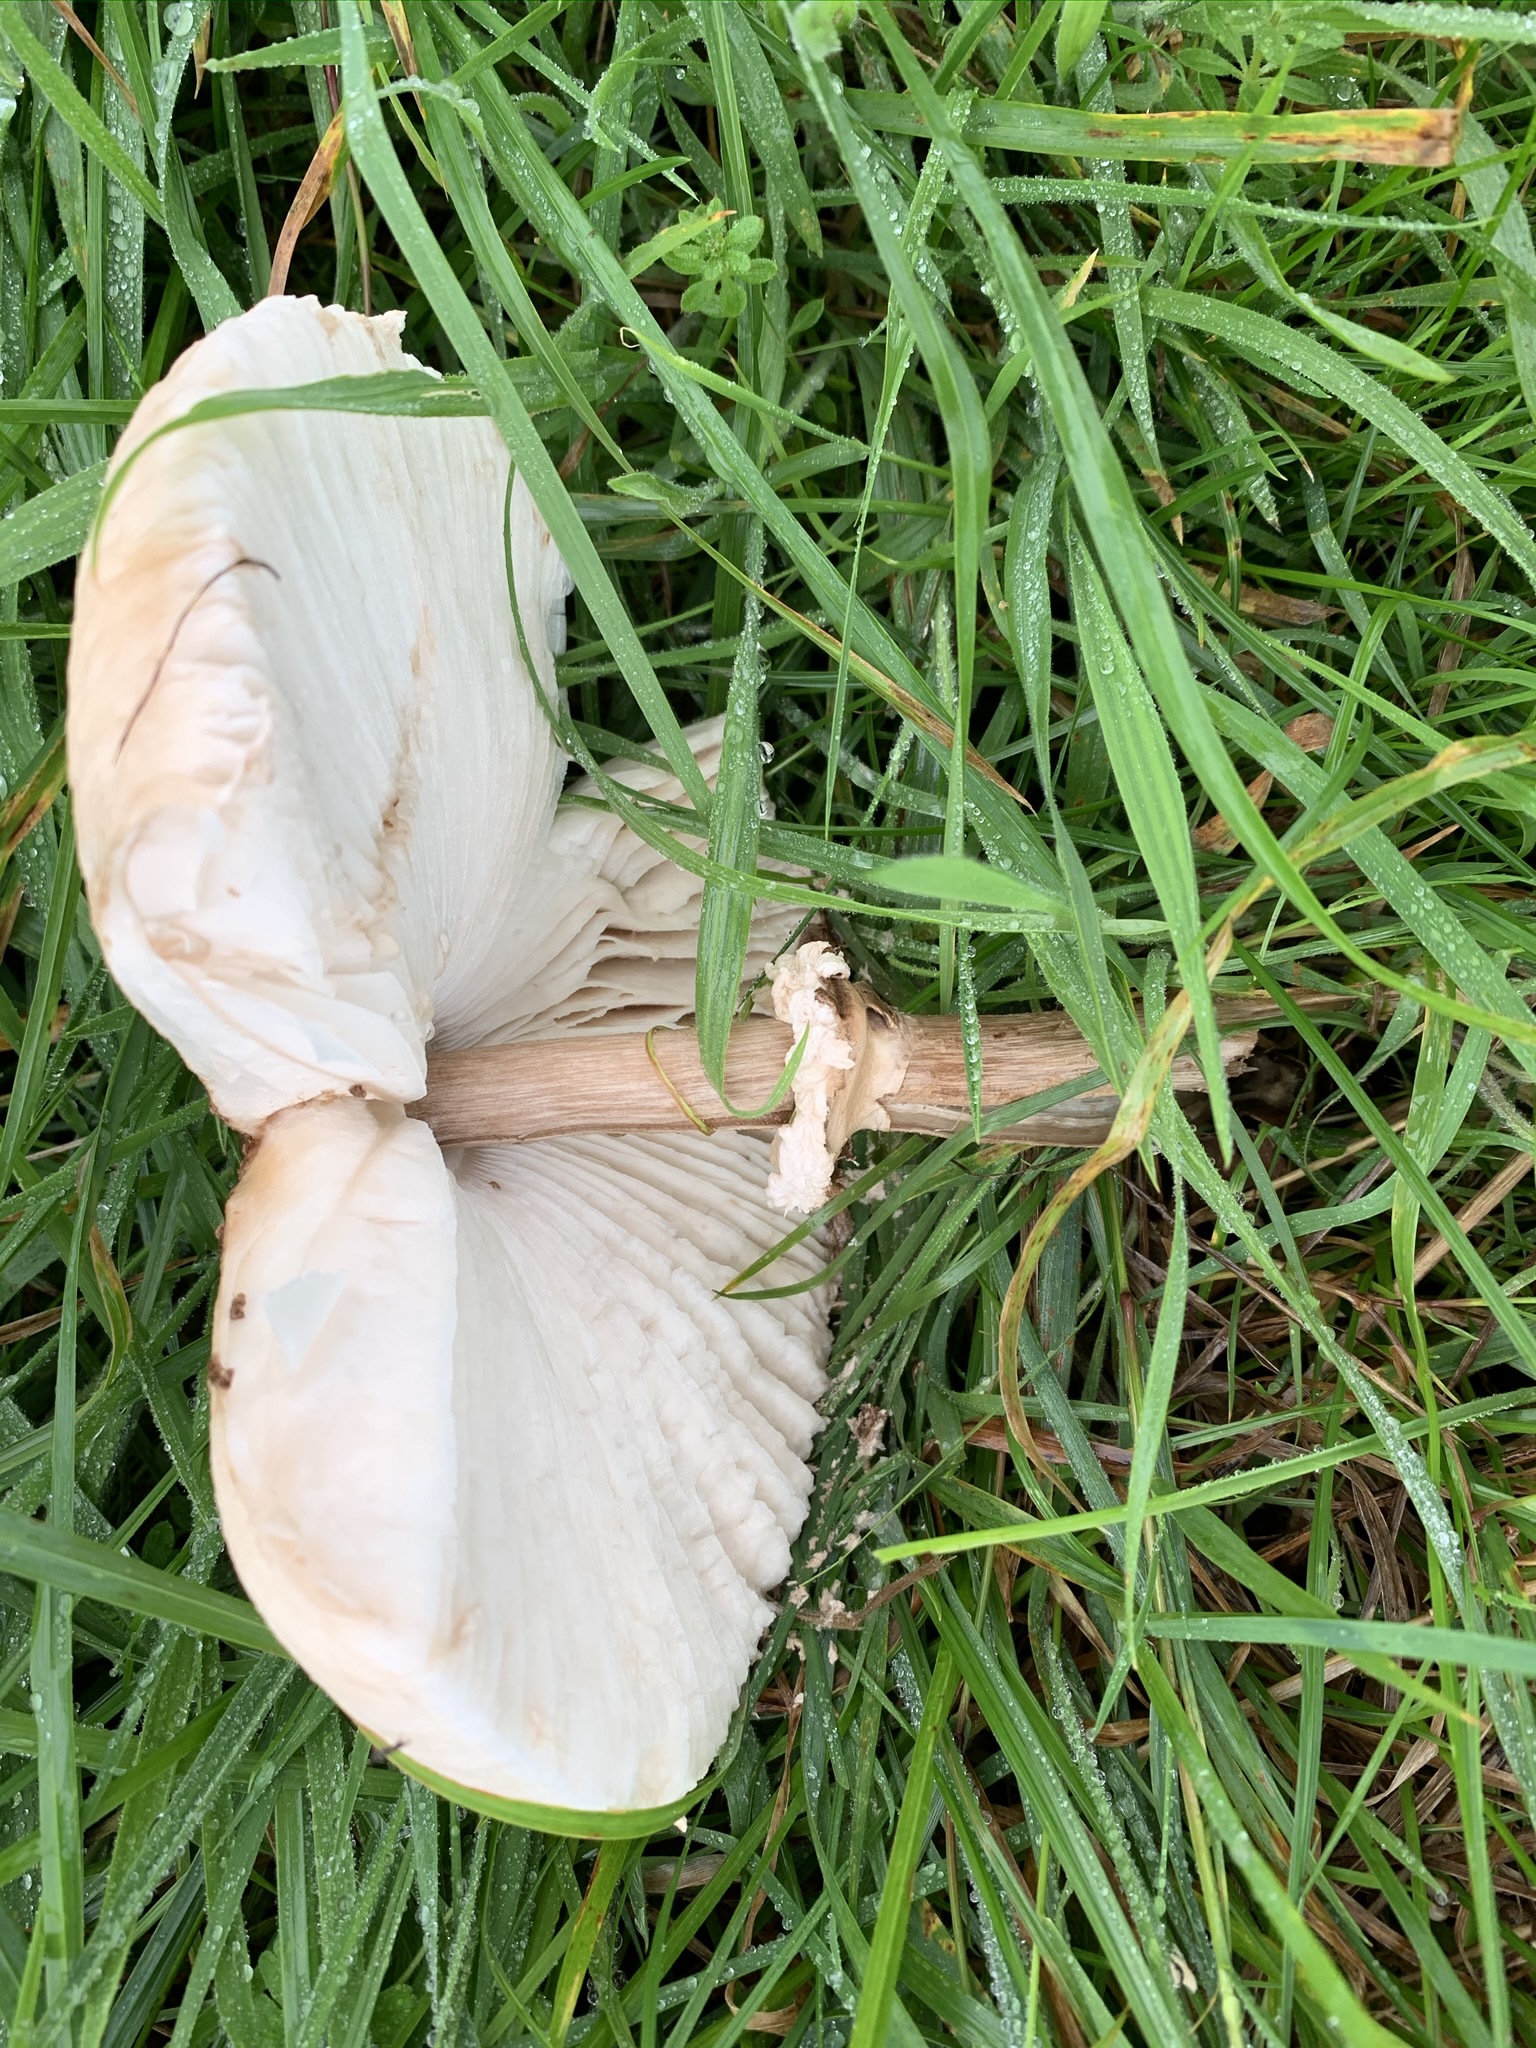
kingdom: Fungi
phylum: Basidiomycota
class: Agaricomycetes
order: Agaricales
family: Agaricaceae
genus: Macrolepiota
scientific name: Macrolepiota procera
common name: Parasol
